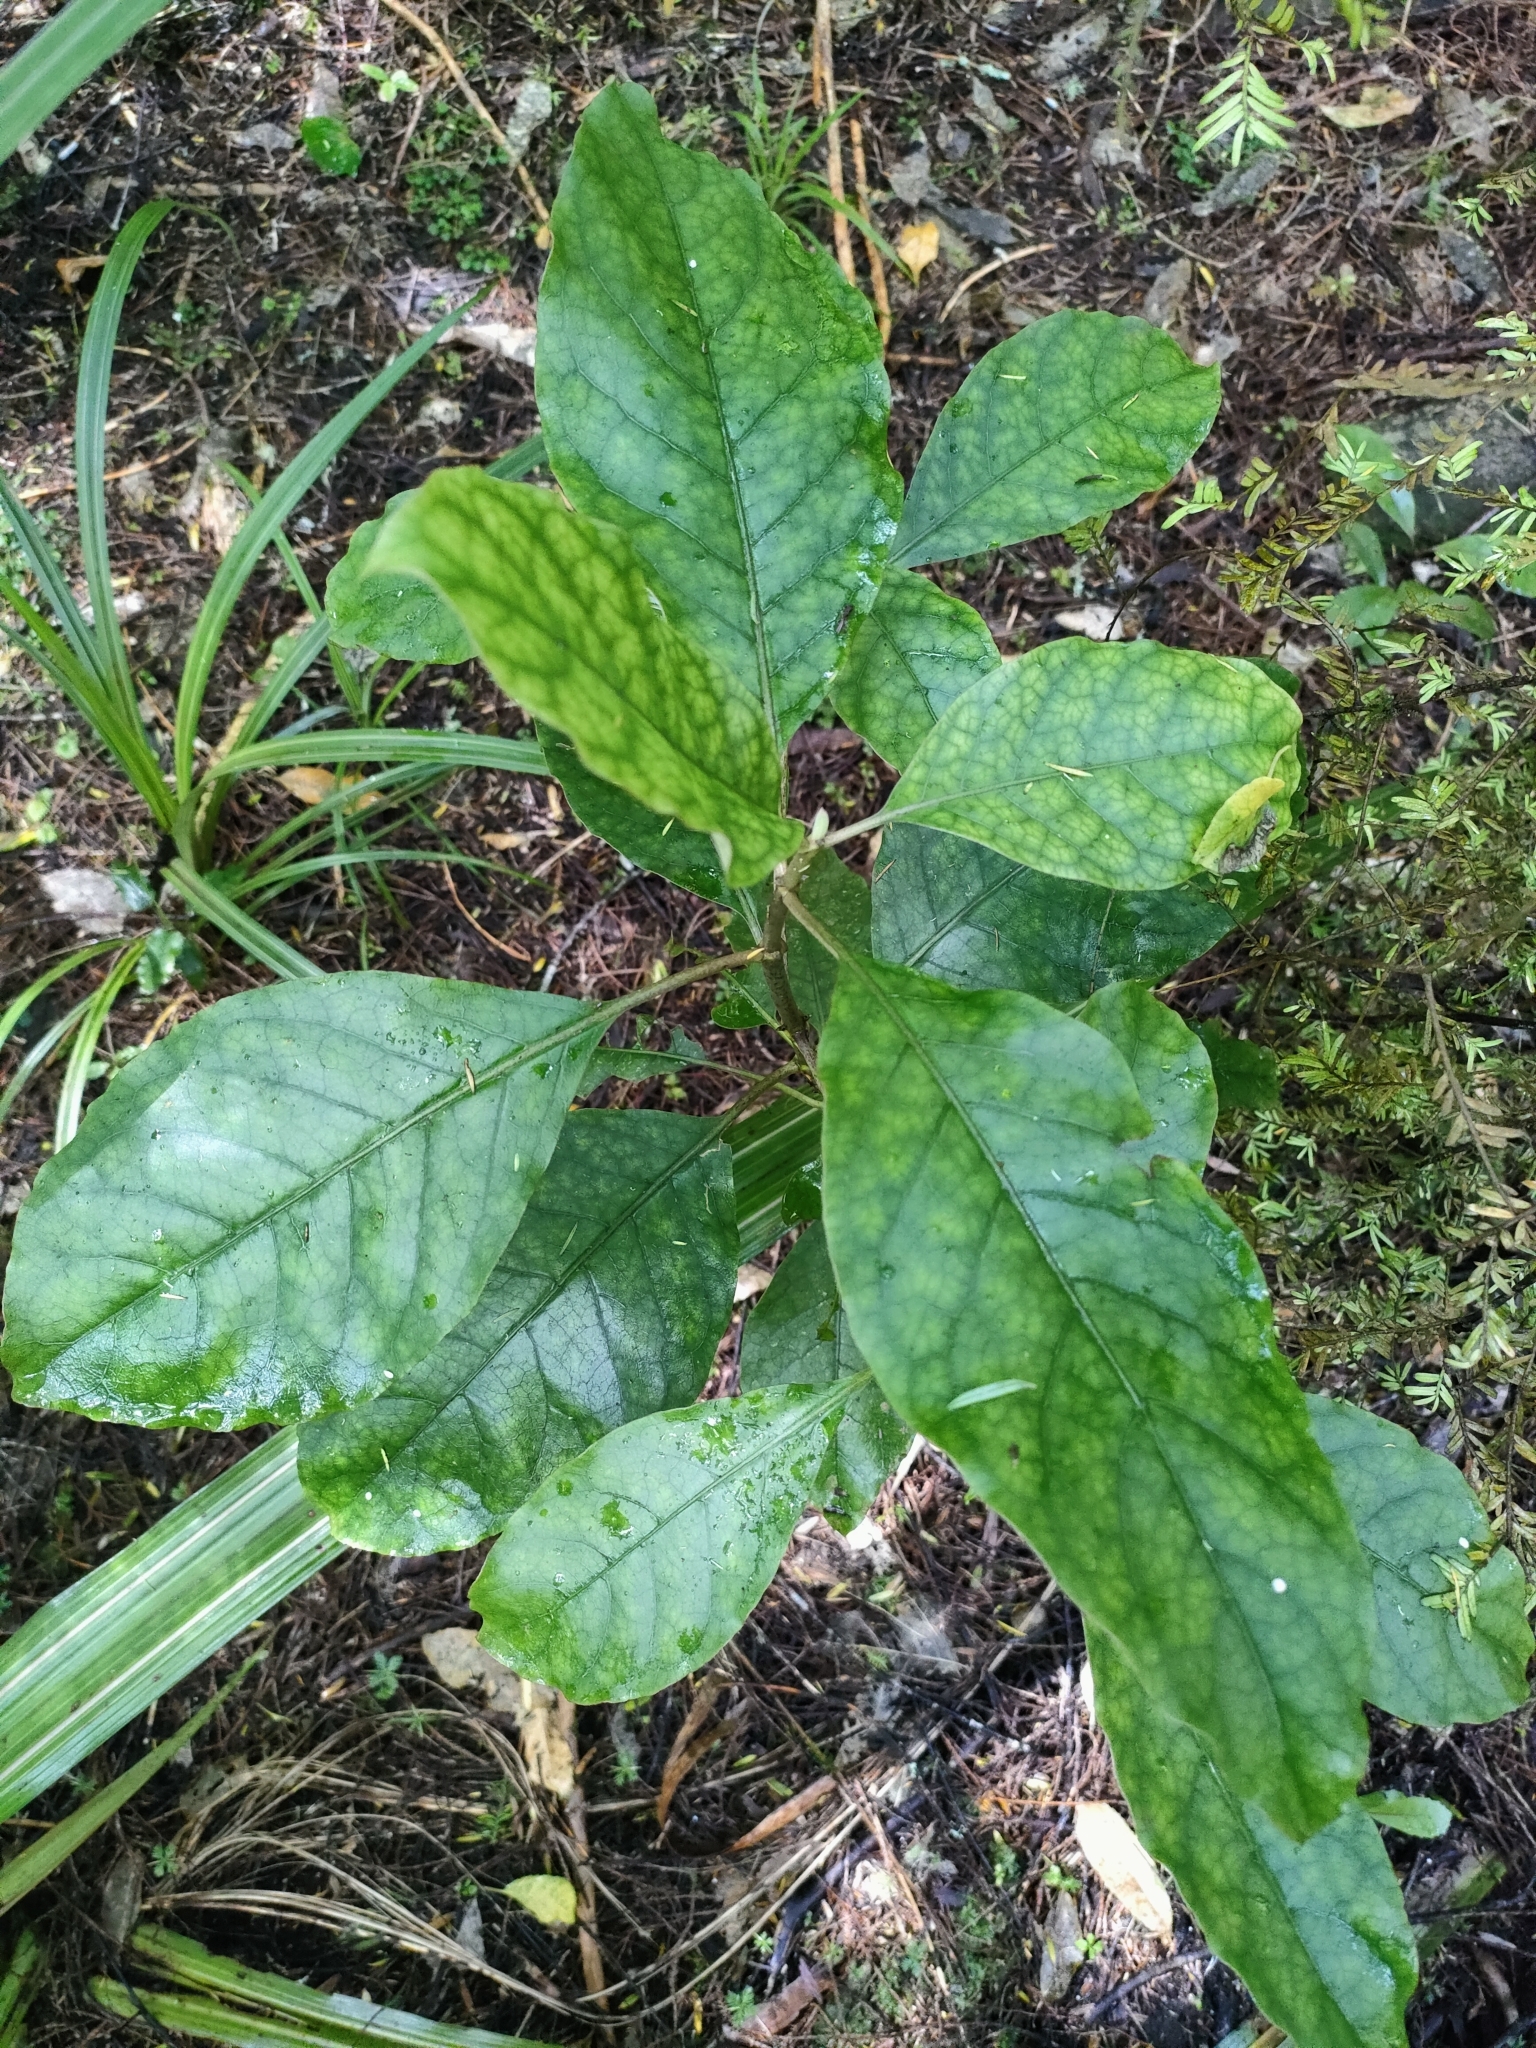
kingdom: Plantae
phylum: Tracheophyta
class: Magnoliopsida
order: Gentianales
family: Rubiaceae
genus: Coprosma
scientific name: Coprosma autumnalis
